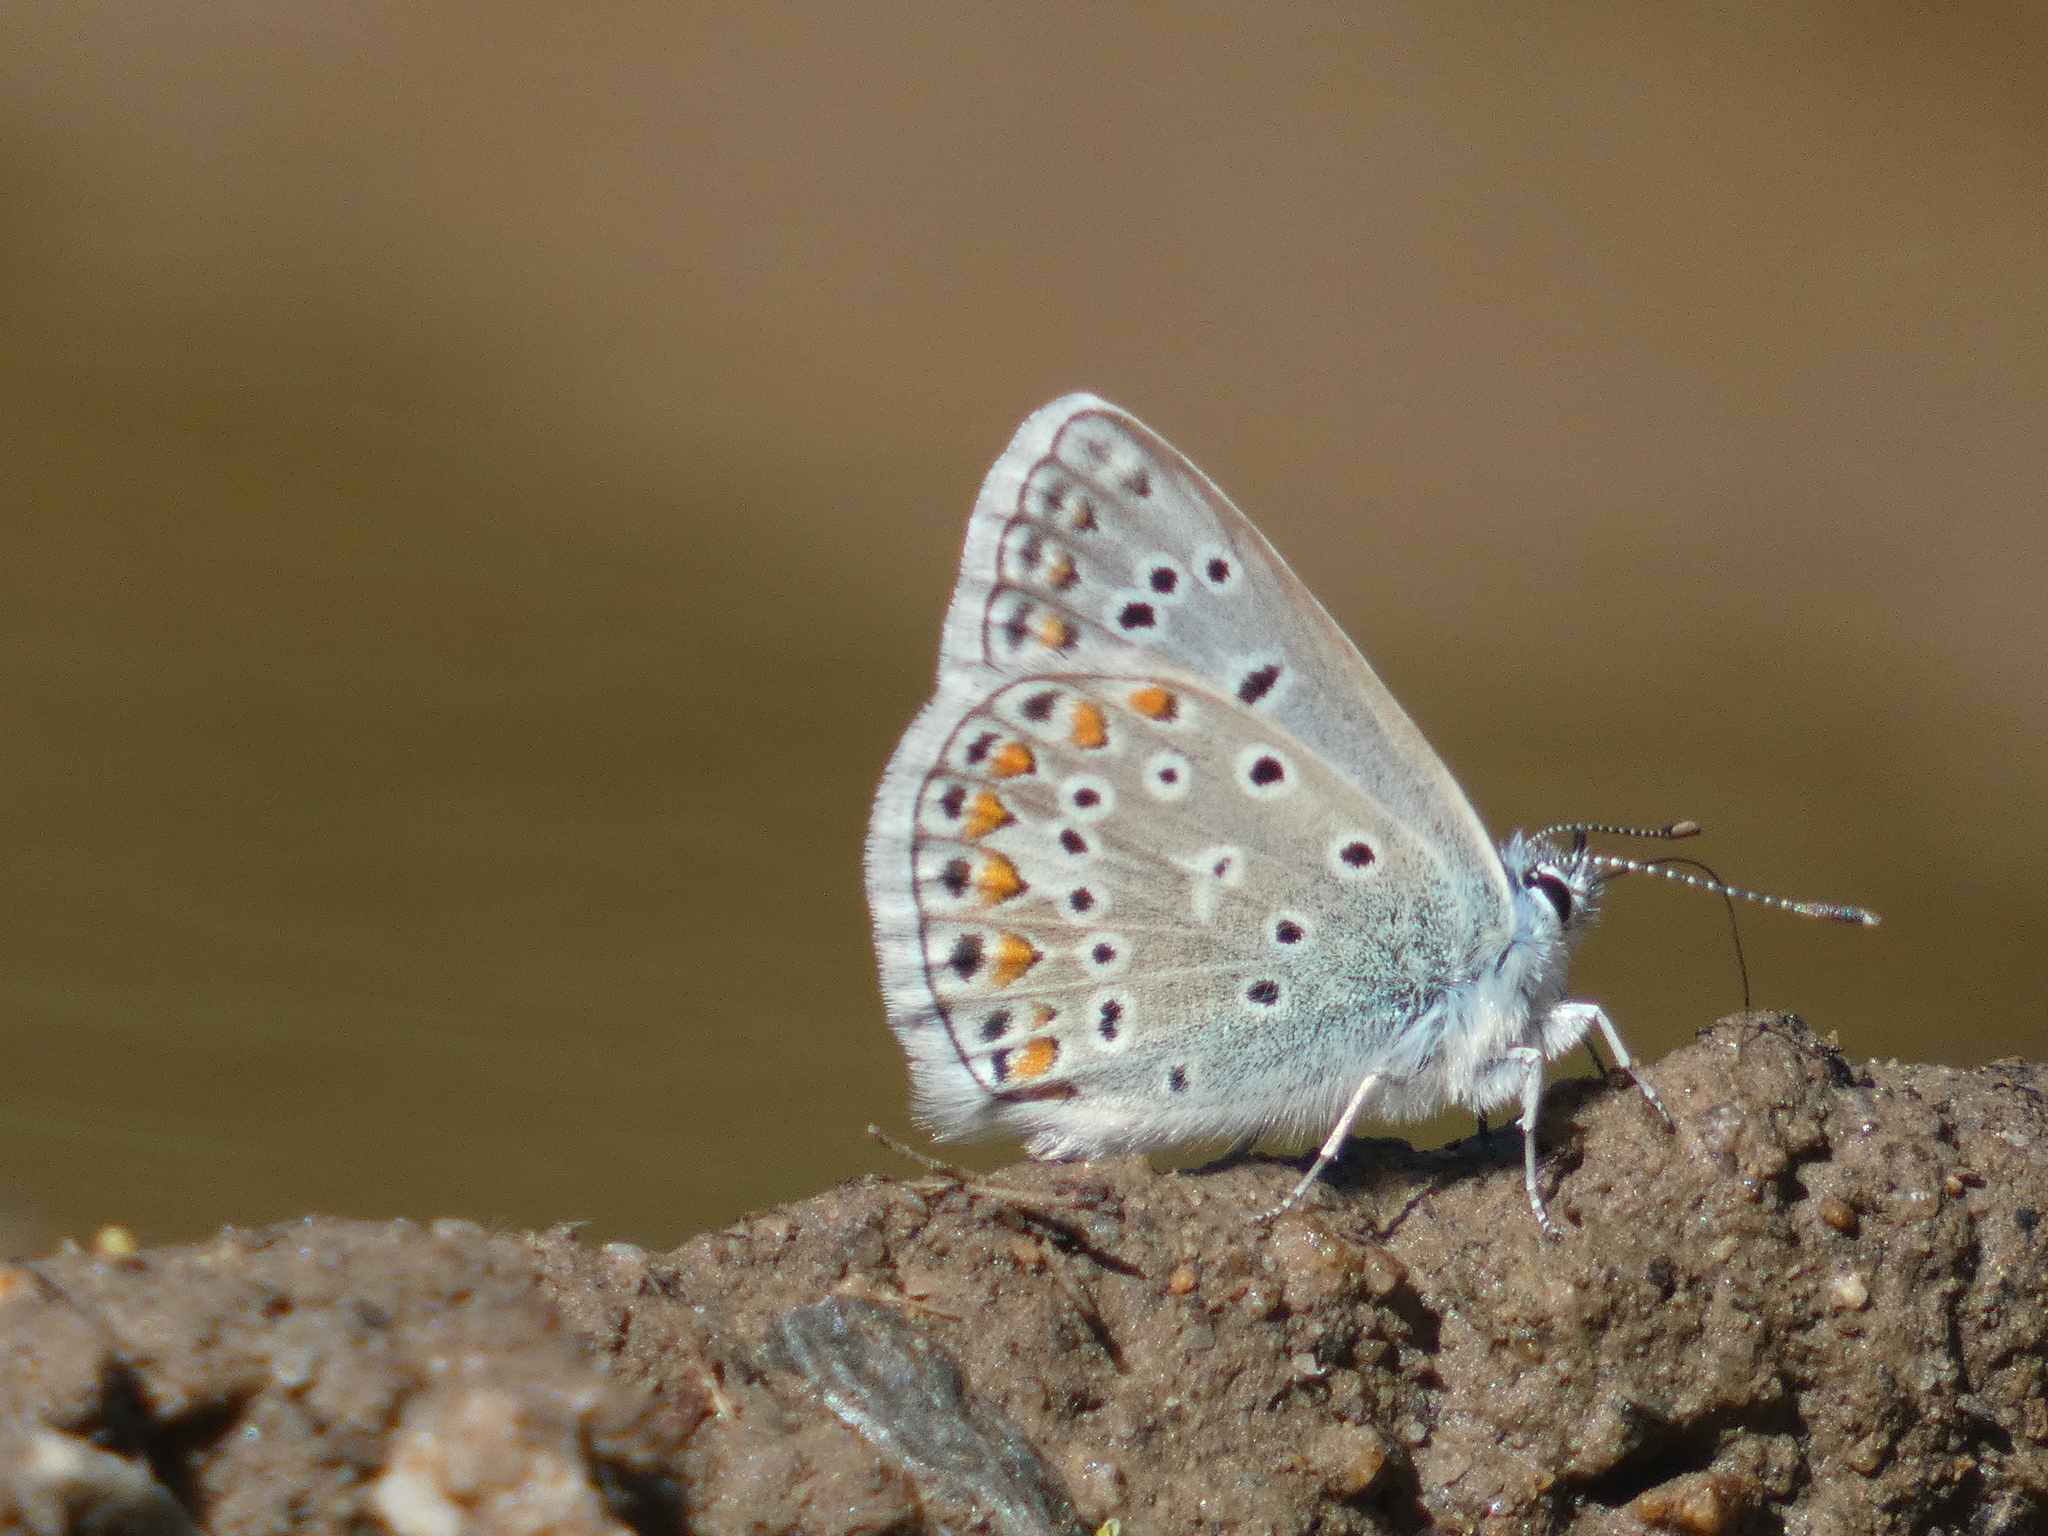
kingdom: Animalia
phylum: Arthropoda
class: Insecta
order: Lepidoptera
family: Lycaenidae
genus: Polyommatus
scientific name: Polyommatus icarus
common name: Common blue
